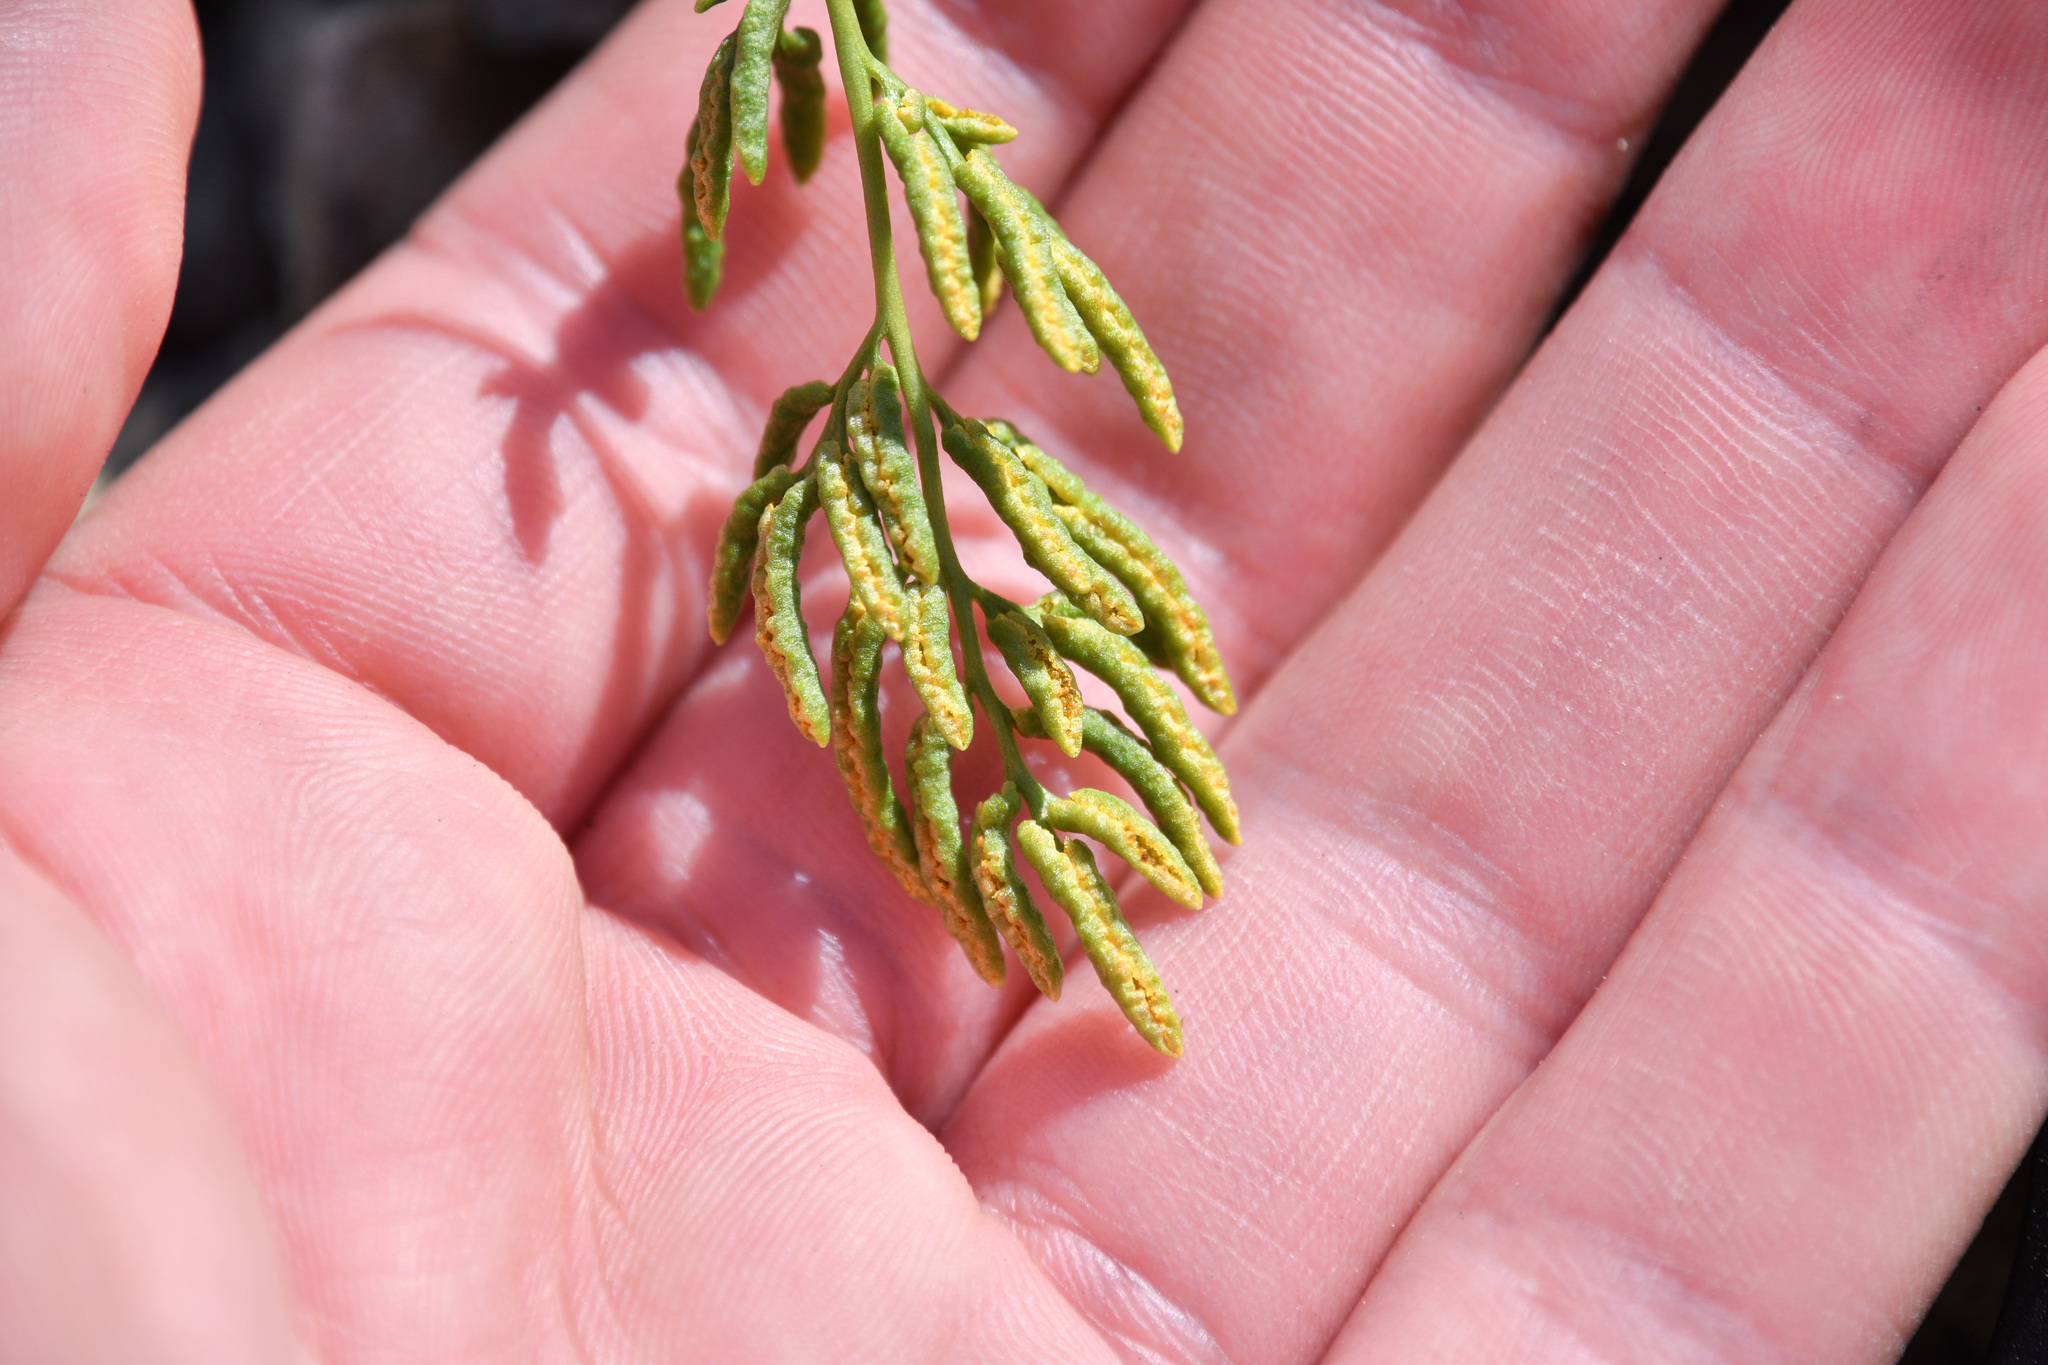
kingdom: Plantae
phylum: Tracheophyta
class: Polypodiopsida
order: Polypodiales
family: Pteridaceae
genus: Cryptogramma
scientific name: Cryptogramma acrostichoides
